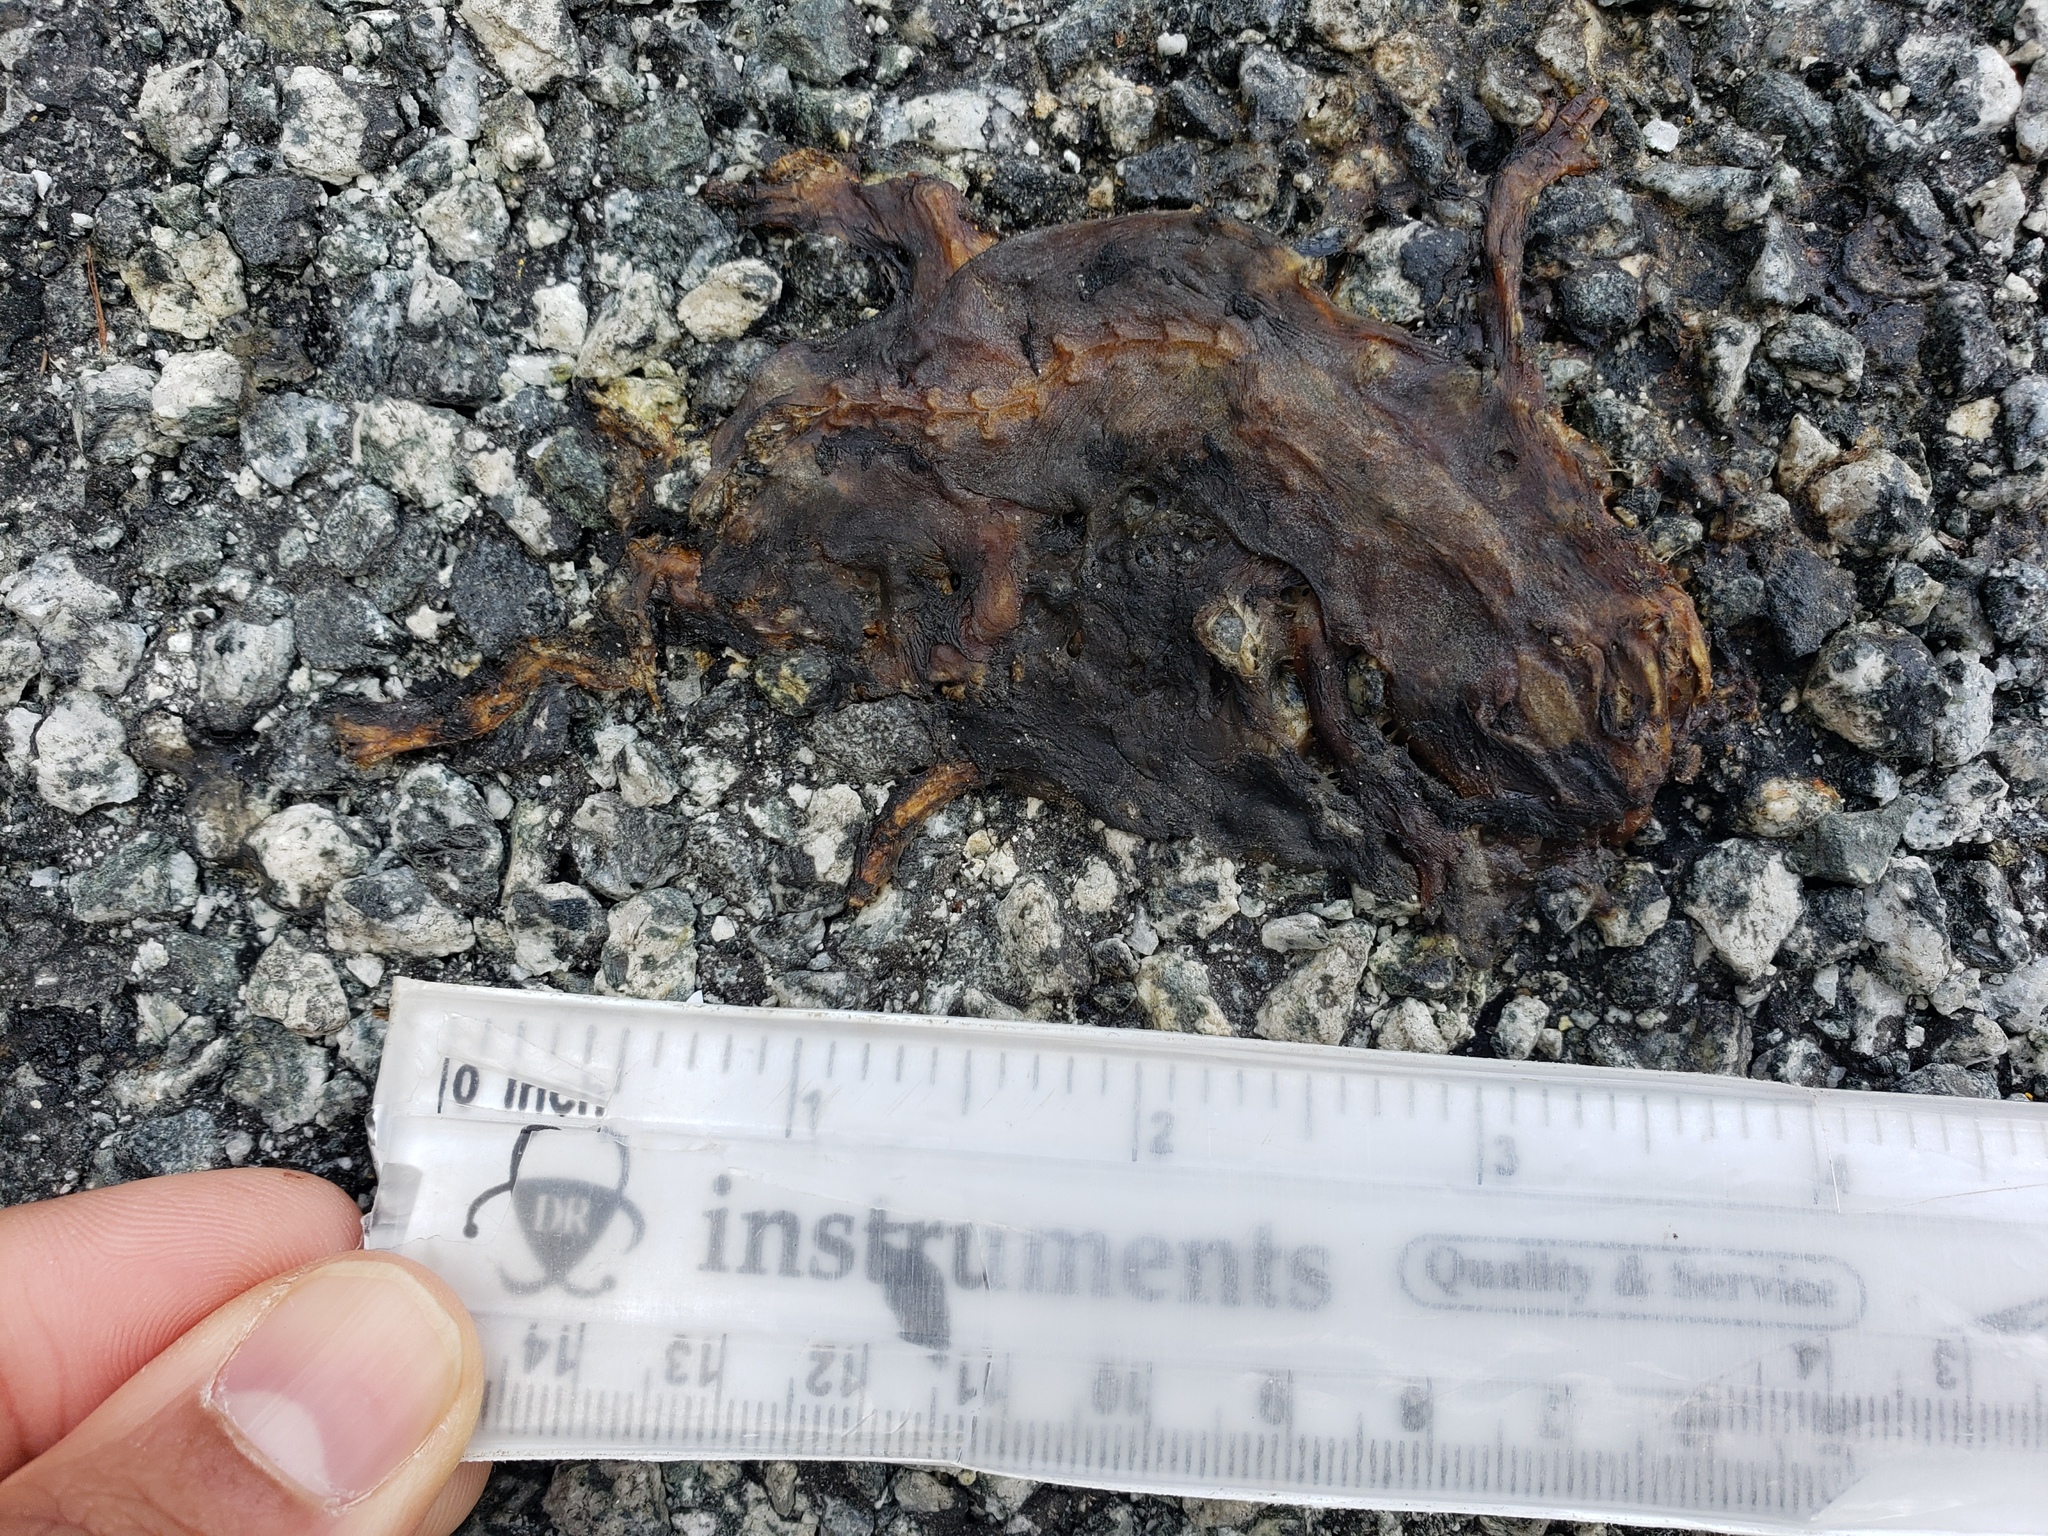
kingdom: Animalia
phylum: Chordata
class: Amphibia
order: Caudata
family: Salamandridae
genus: Taricha
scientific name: Taricha
